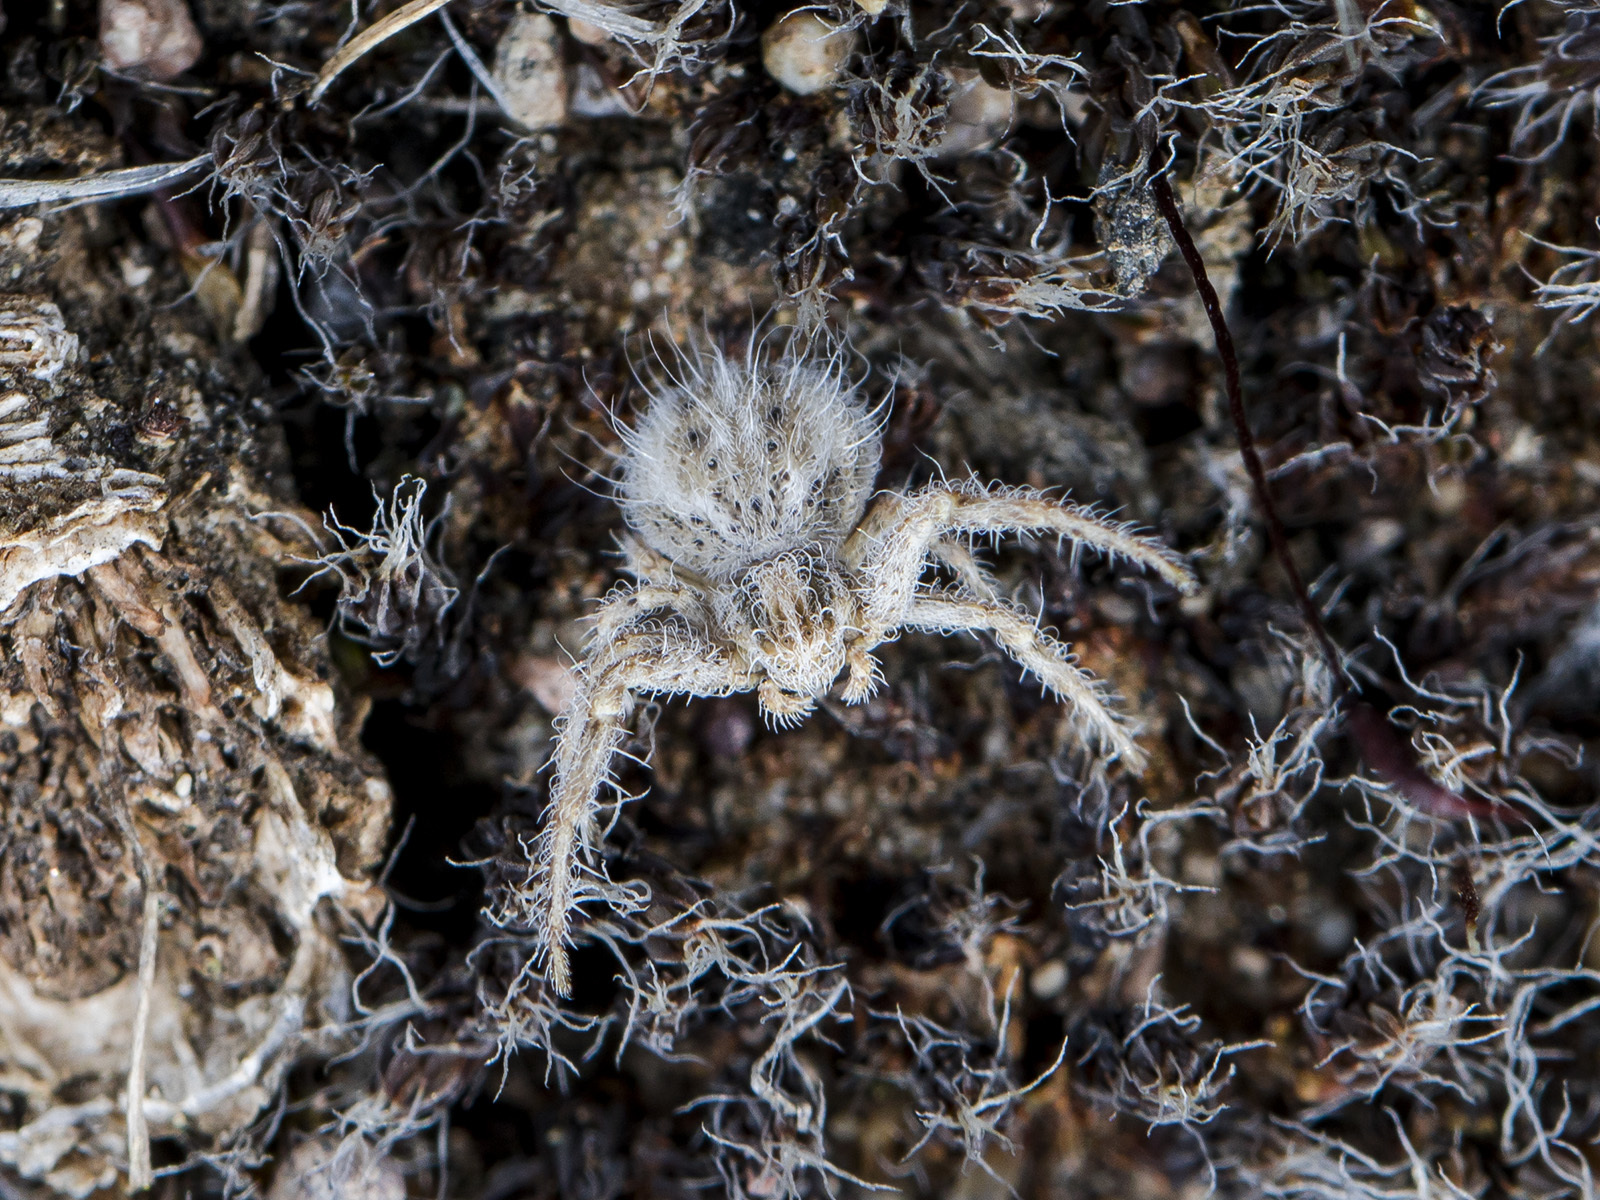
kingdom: Animalia
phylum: Arthropoda
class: Arachnida
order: Araneae
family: Thomisidae
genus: Heriaeus
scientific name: Heriaeus horridus
